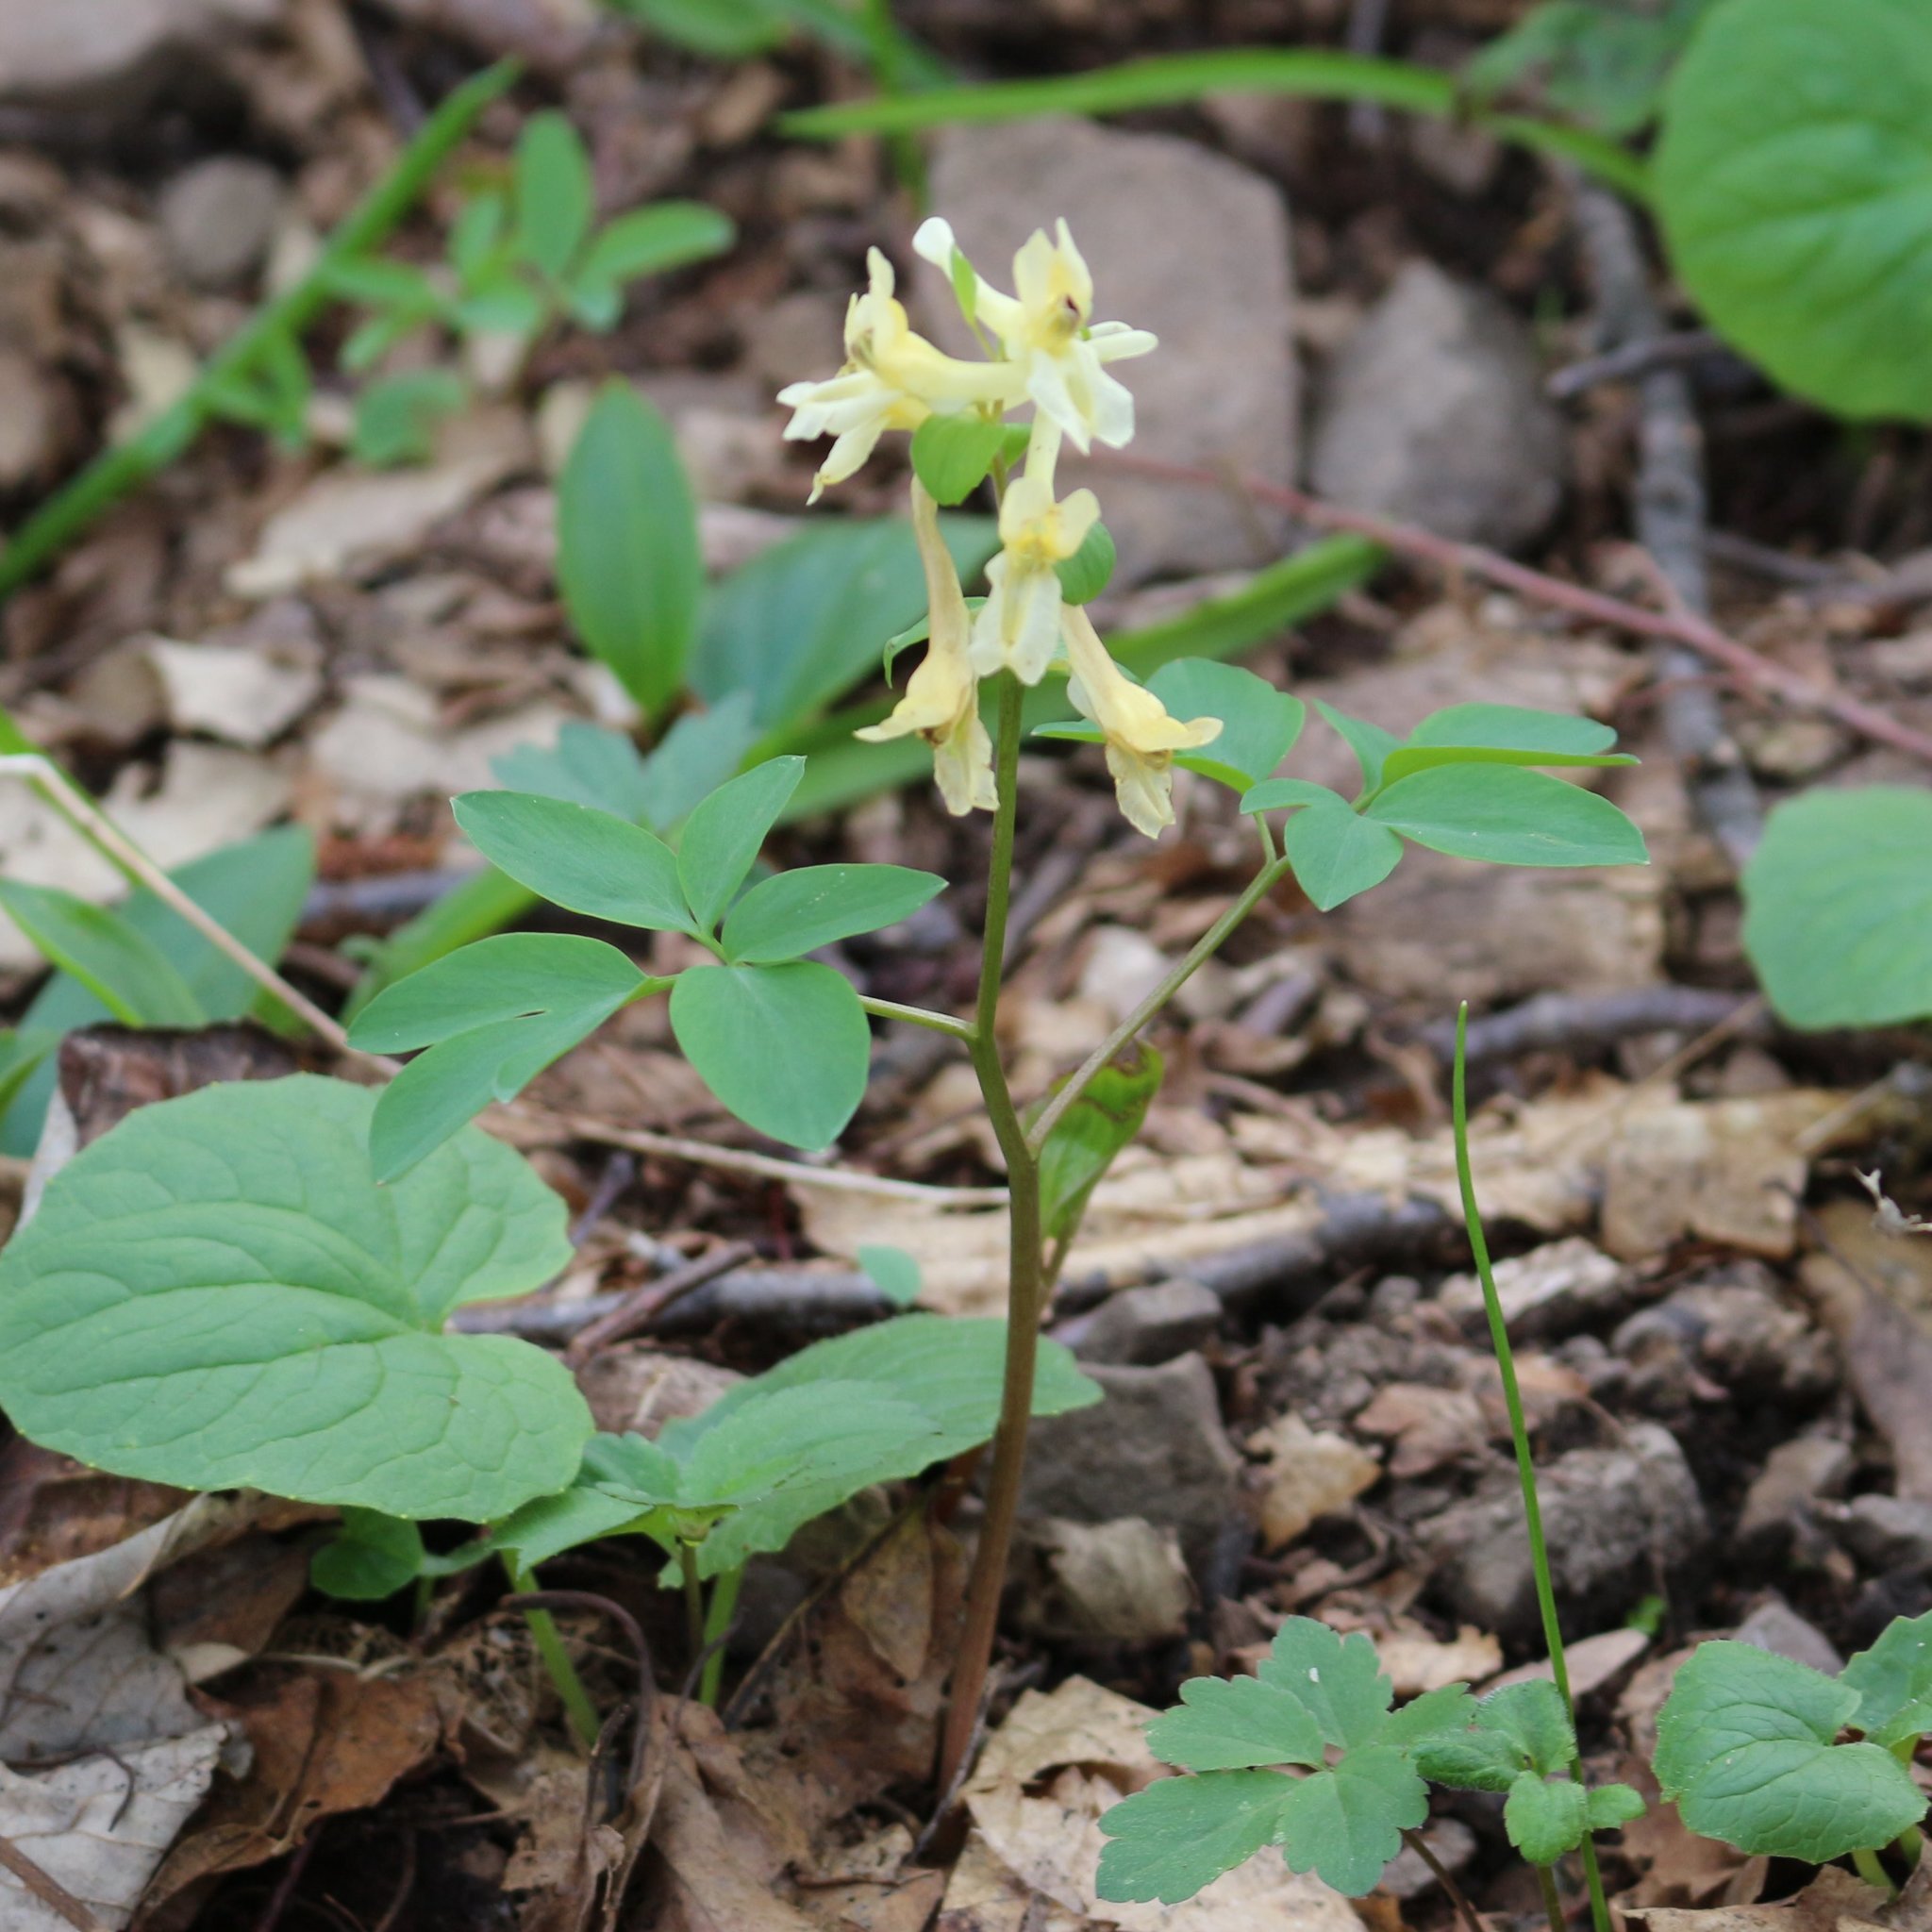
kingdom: Plantae
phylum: Tracheophyta
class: Magnoliopsida
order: Ranunculales
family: Papaveraceae
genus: Corydalis
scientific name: Corydalis cava
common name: Hollowroot
